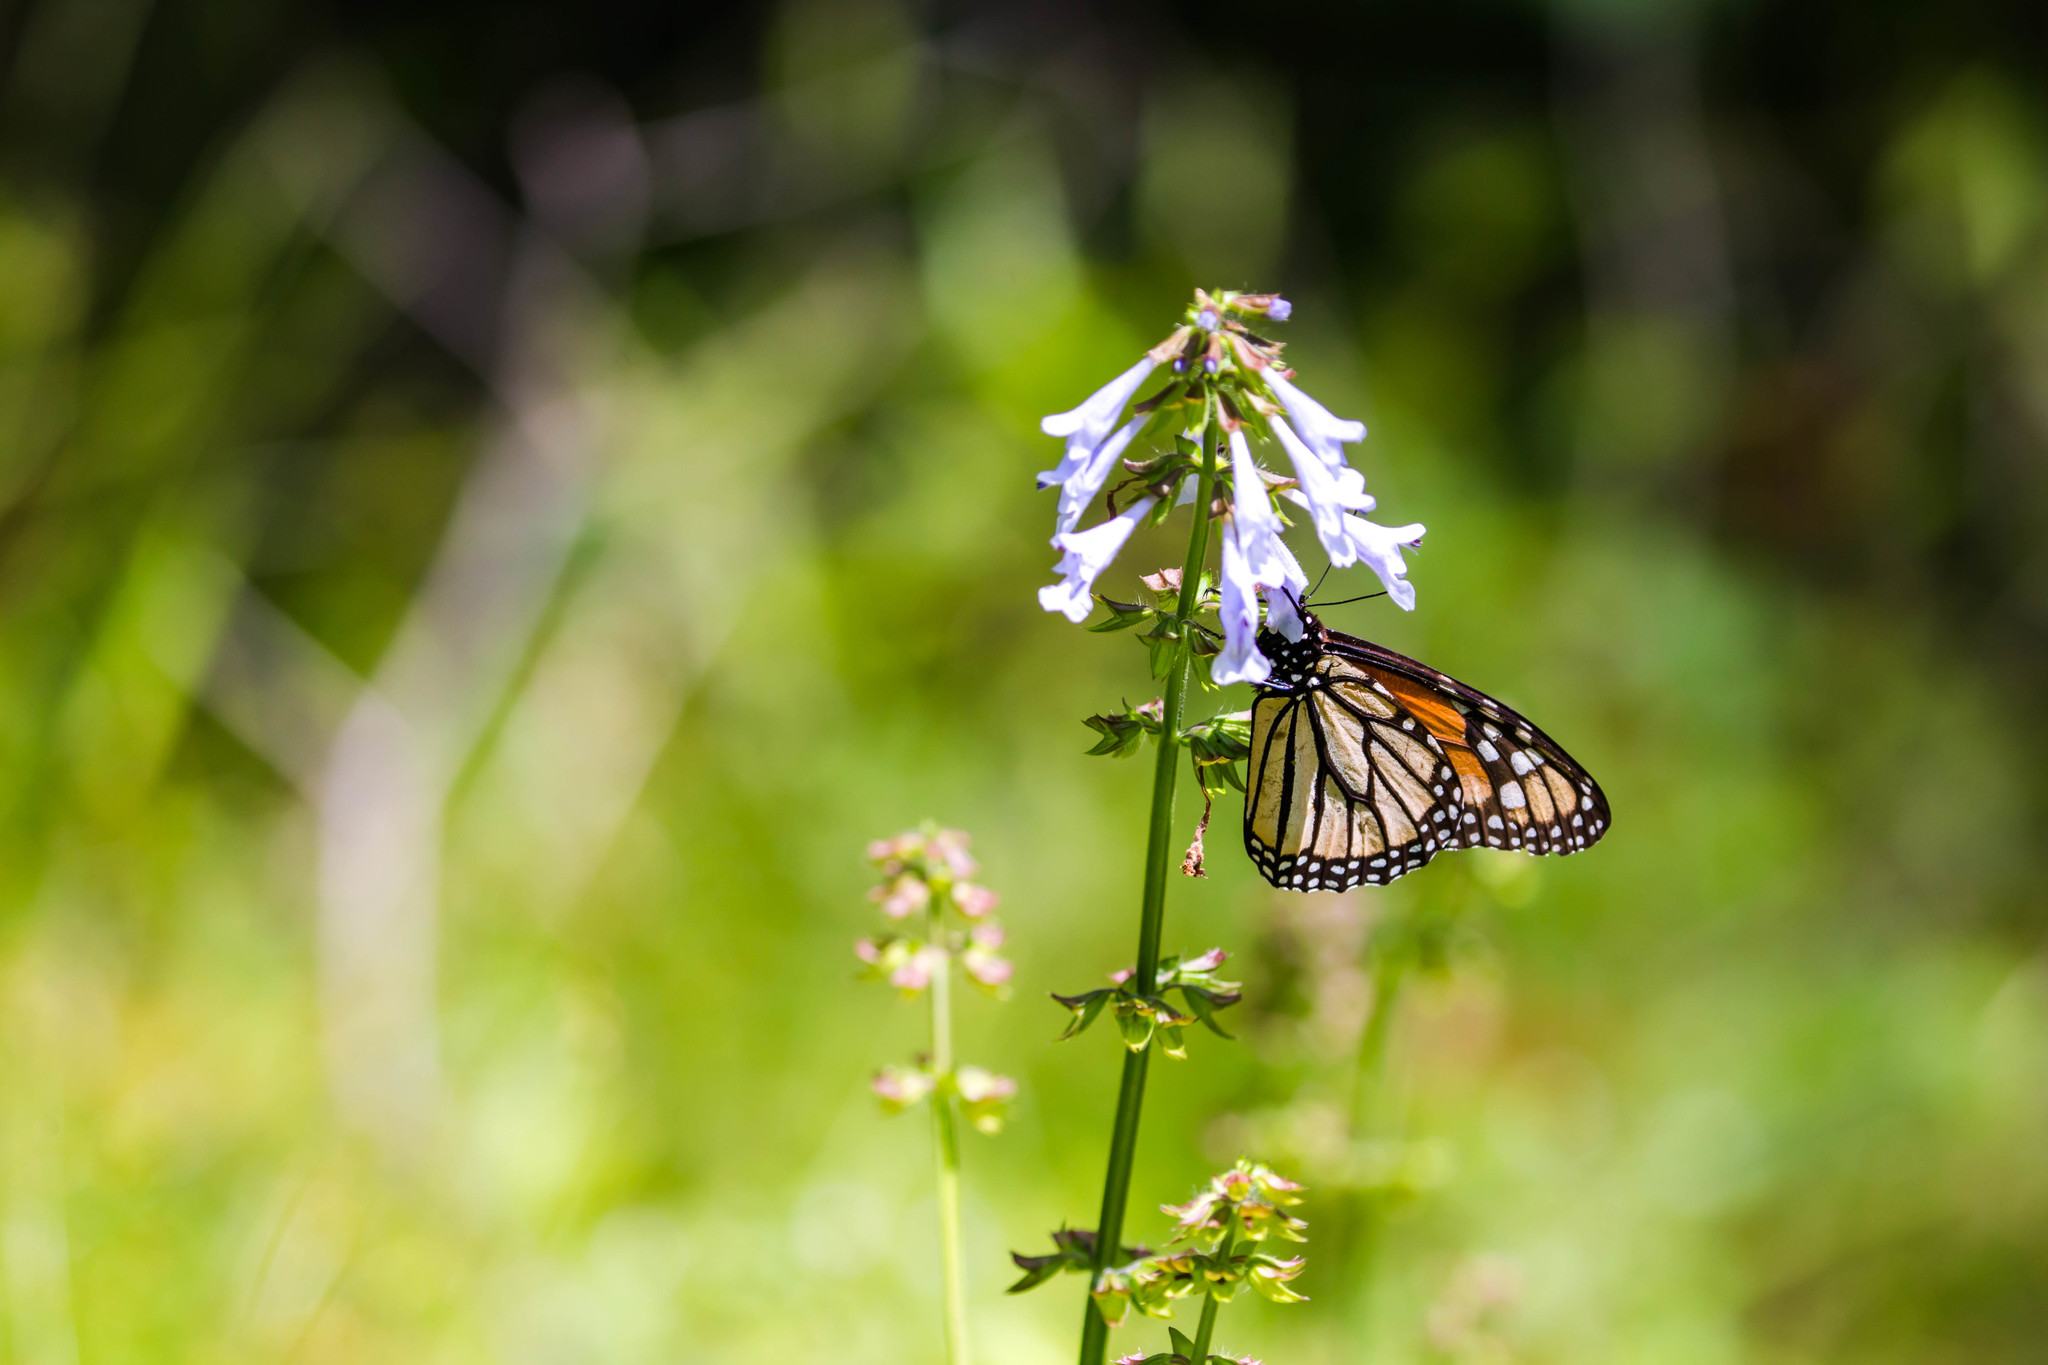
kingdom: Animalia
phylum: Arthropoda
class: Insecta
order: Lepidoptera
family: Nymphalidae
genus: Danaus
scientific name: Danaus plexippus
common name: Monarch
